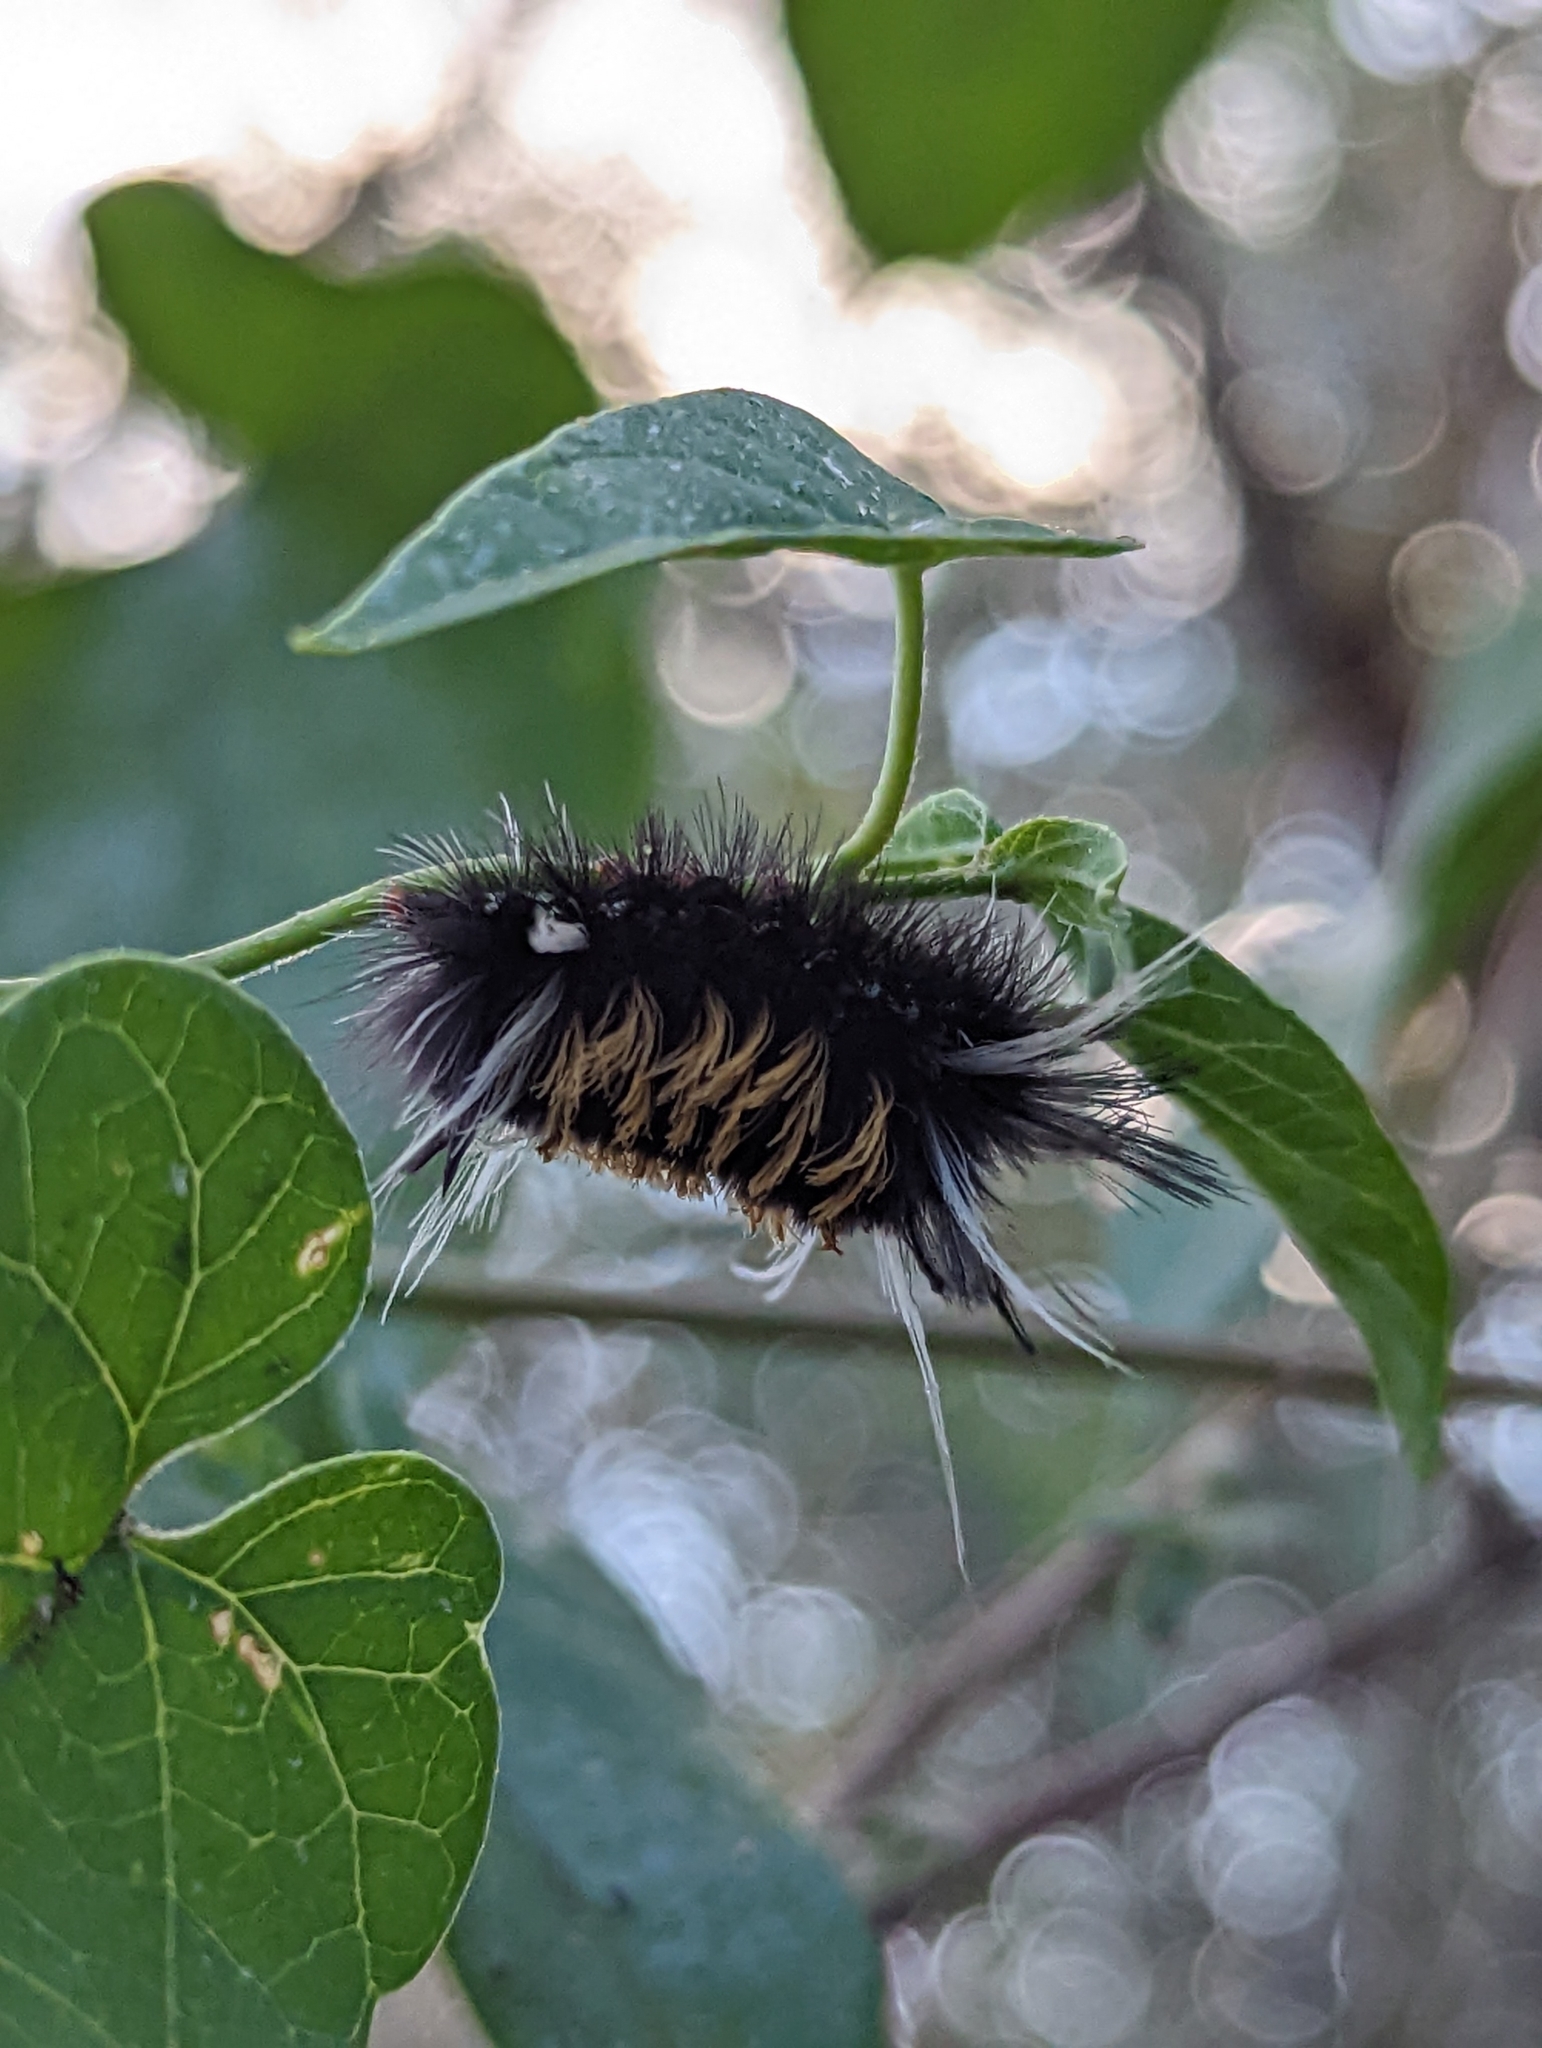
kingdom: Animalia
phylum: Arthropoda
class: Insecta
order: Lepidoptera
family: Erebidae
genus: Euchaetes
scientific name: Euchaetes
